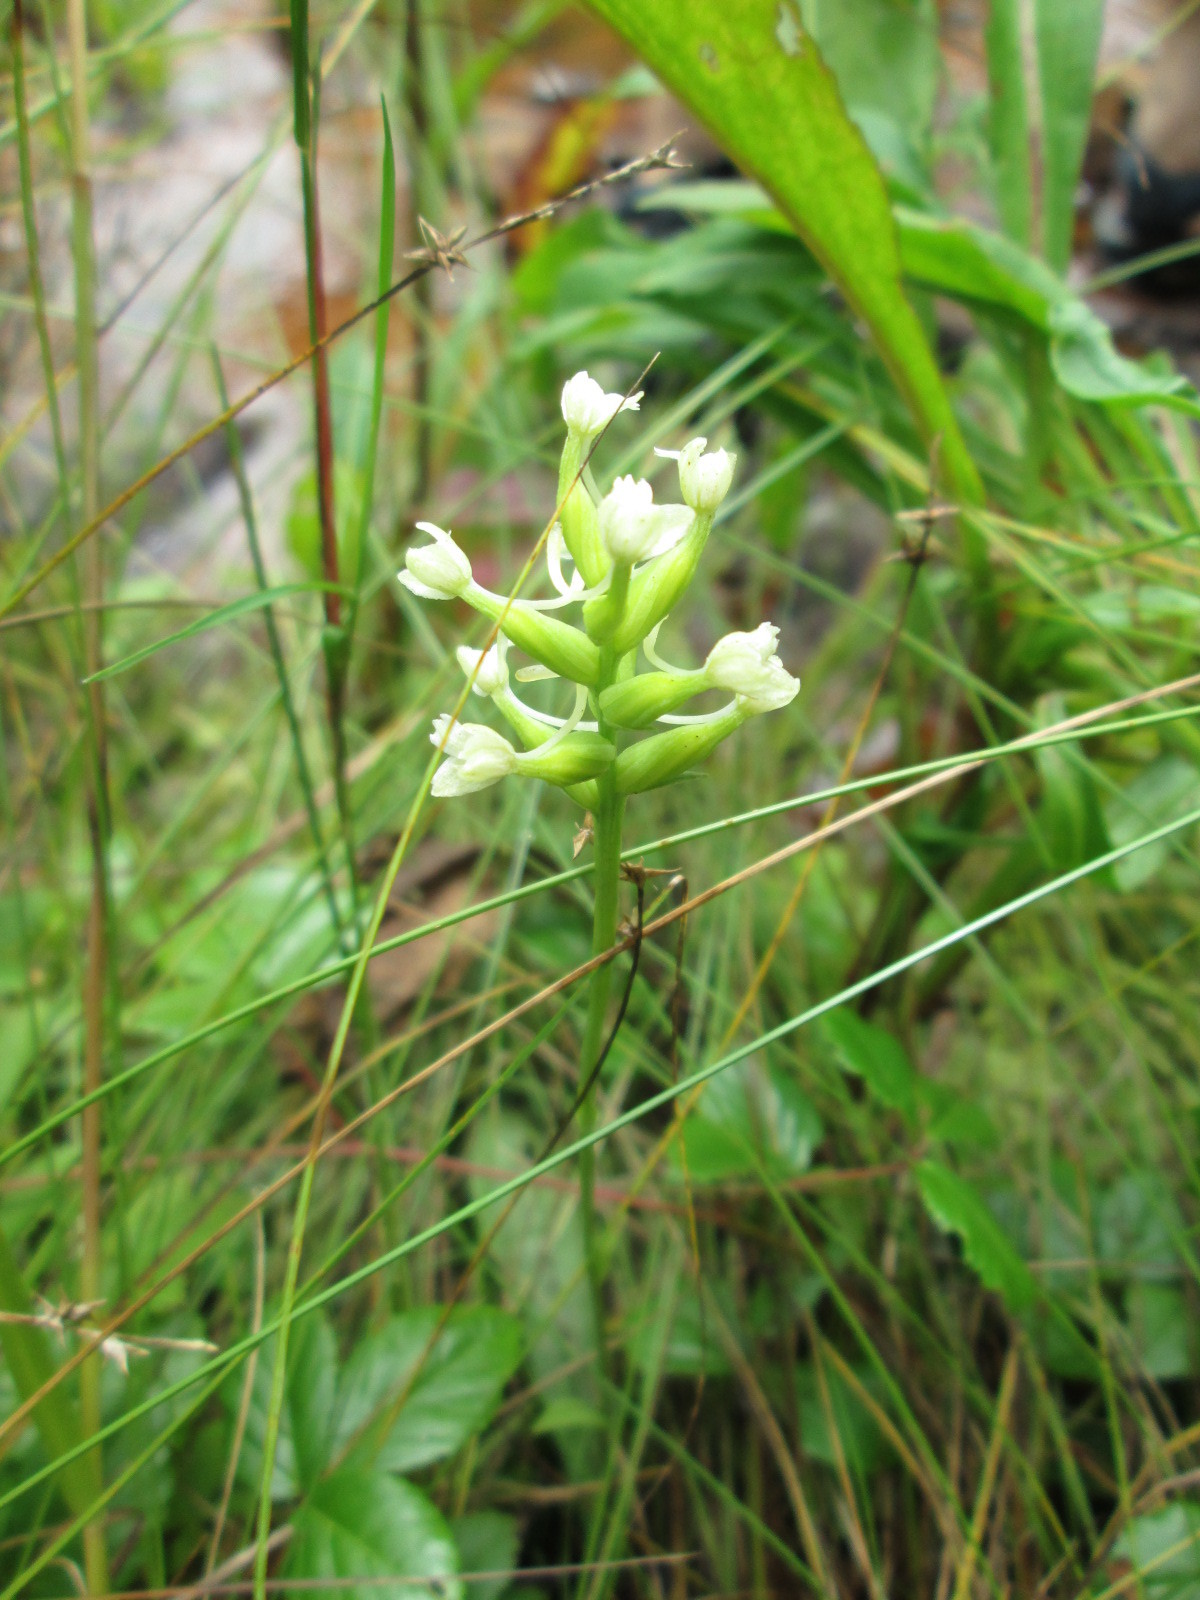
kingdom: Plantae
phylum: Tracheophyta
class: Liliopsida
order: Asparagales
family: Orchidaceae
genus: Platanthera
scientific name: Platanthera clavellata
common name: Club-spur orchid
